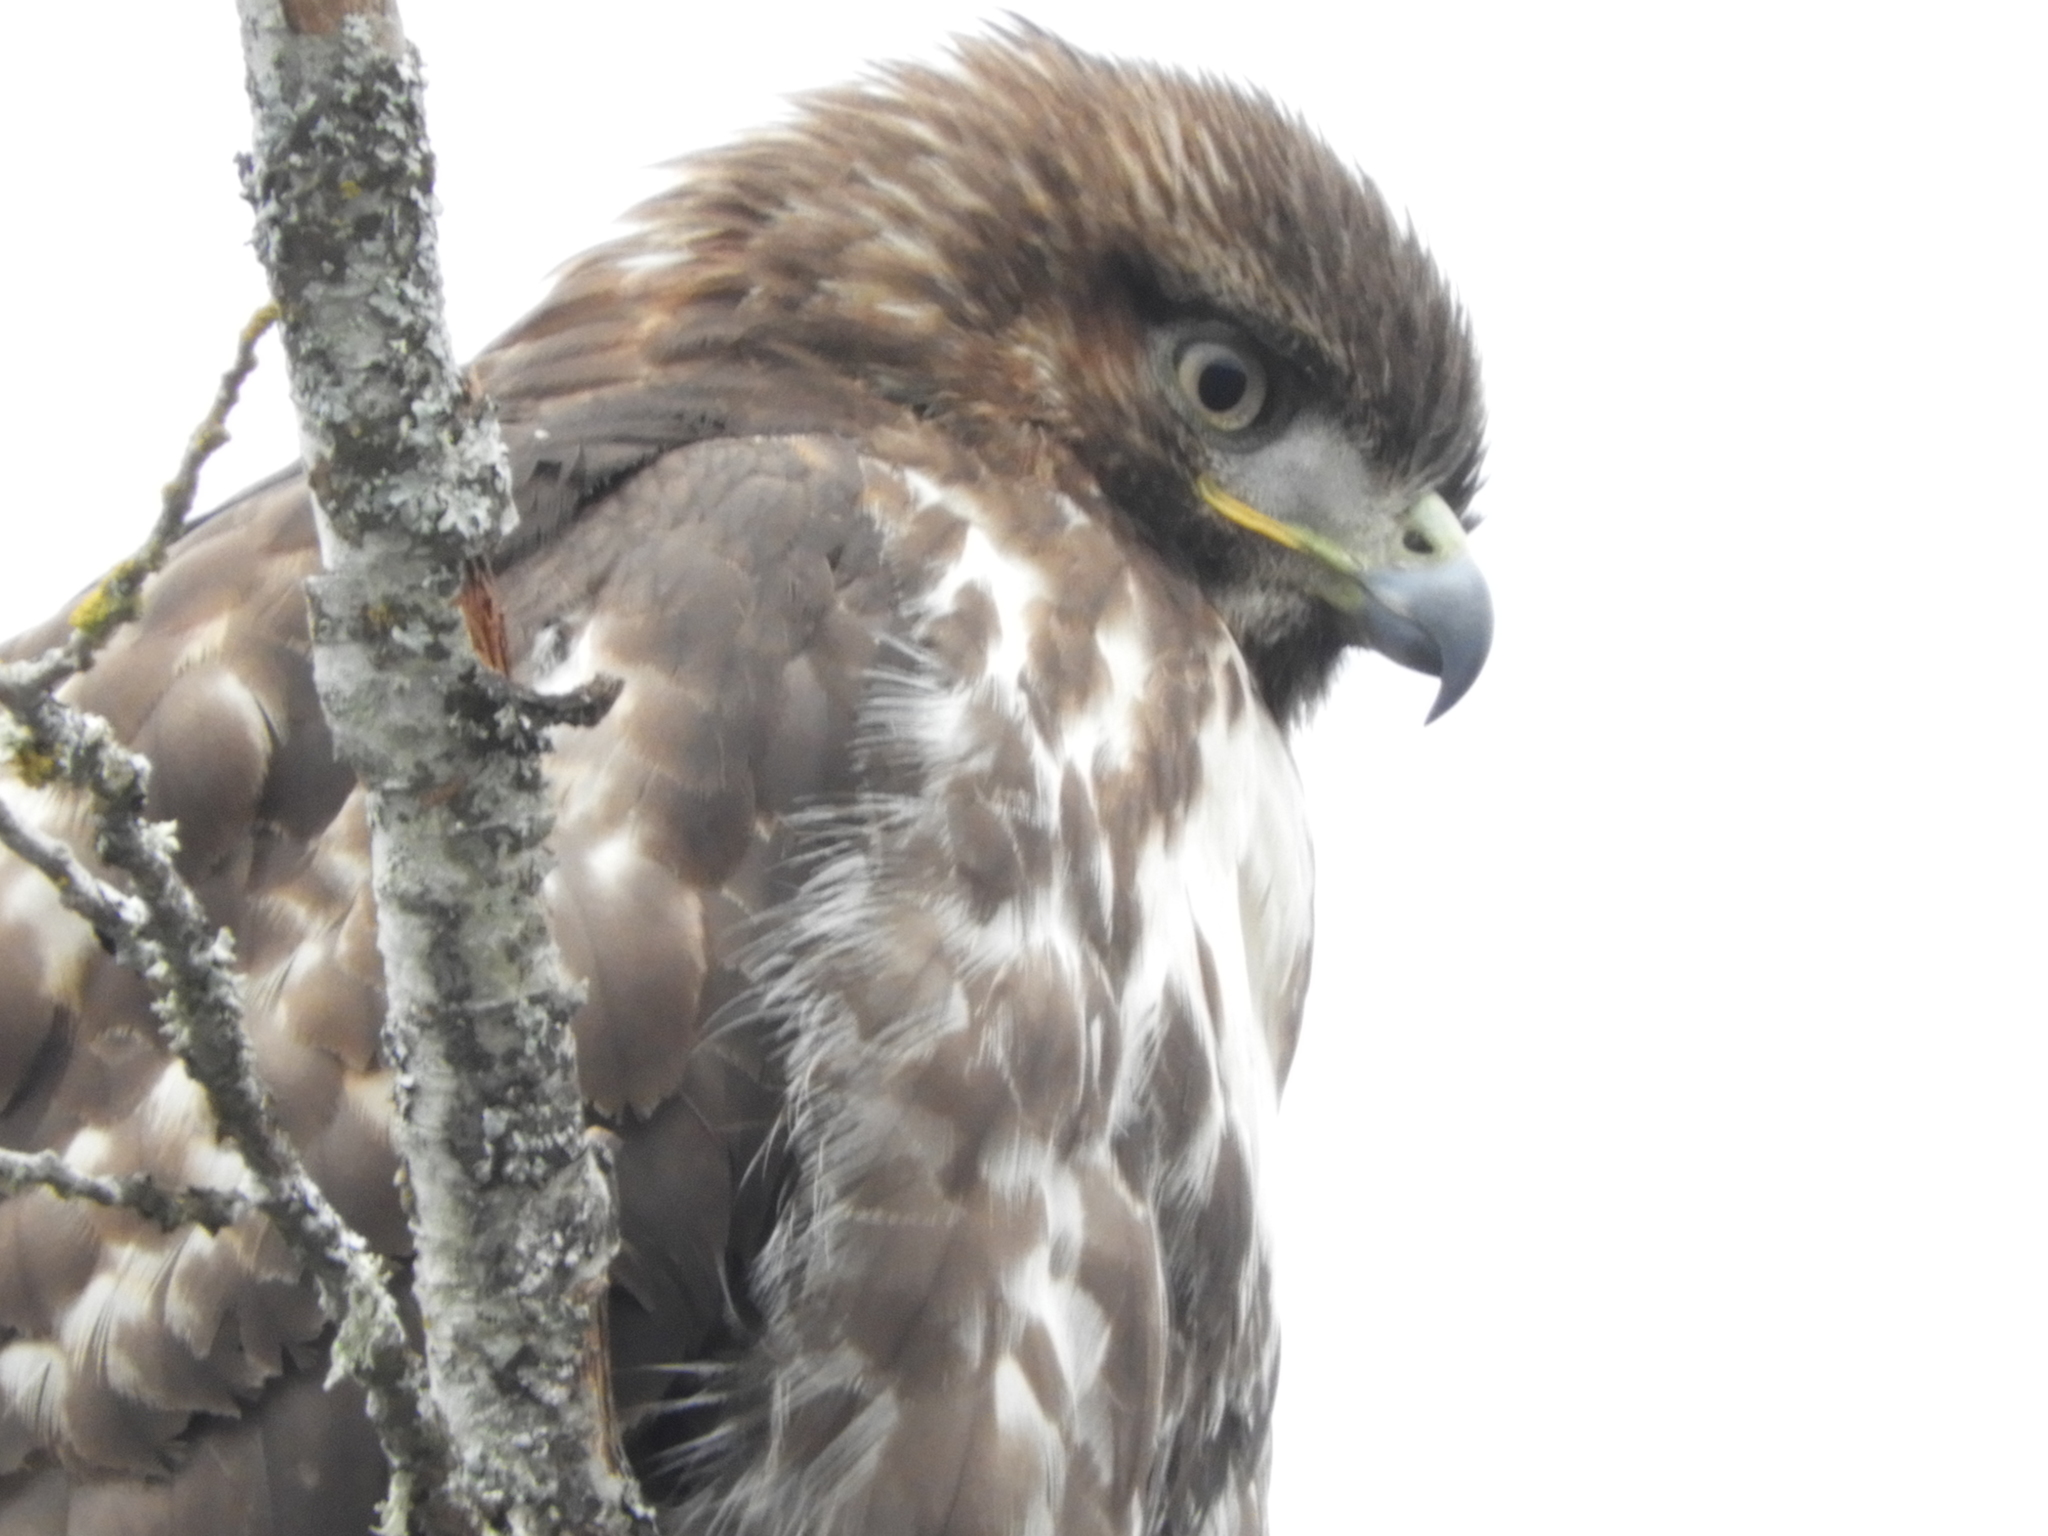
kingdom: Animalia
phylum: Chordata
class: Aves
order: Accipitriformes
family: Accipitridae
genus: Buteo
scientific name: Buteo jamaicensis
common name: Red-tailed hawk
